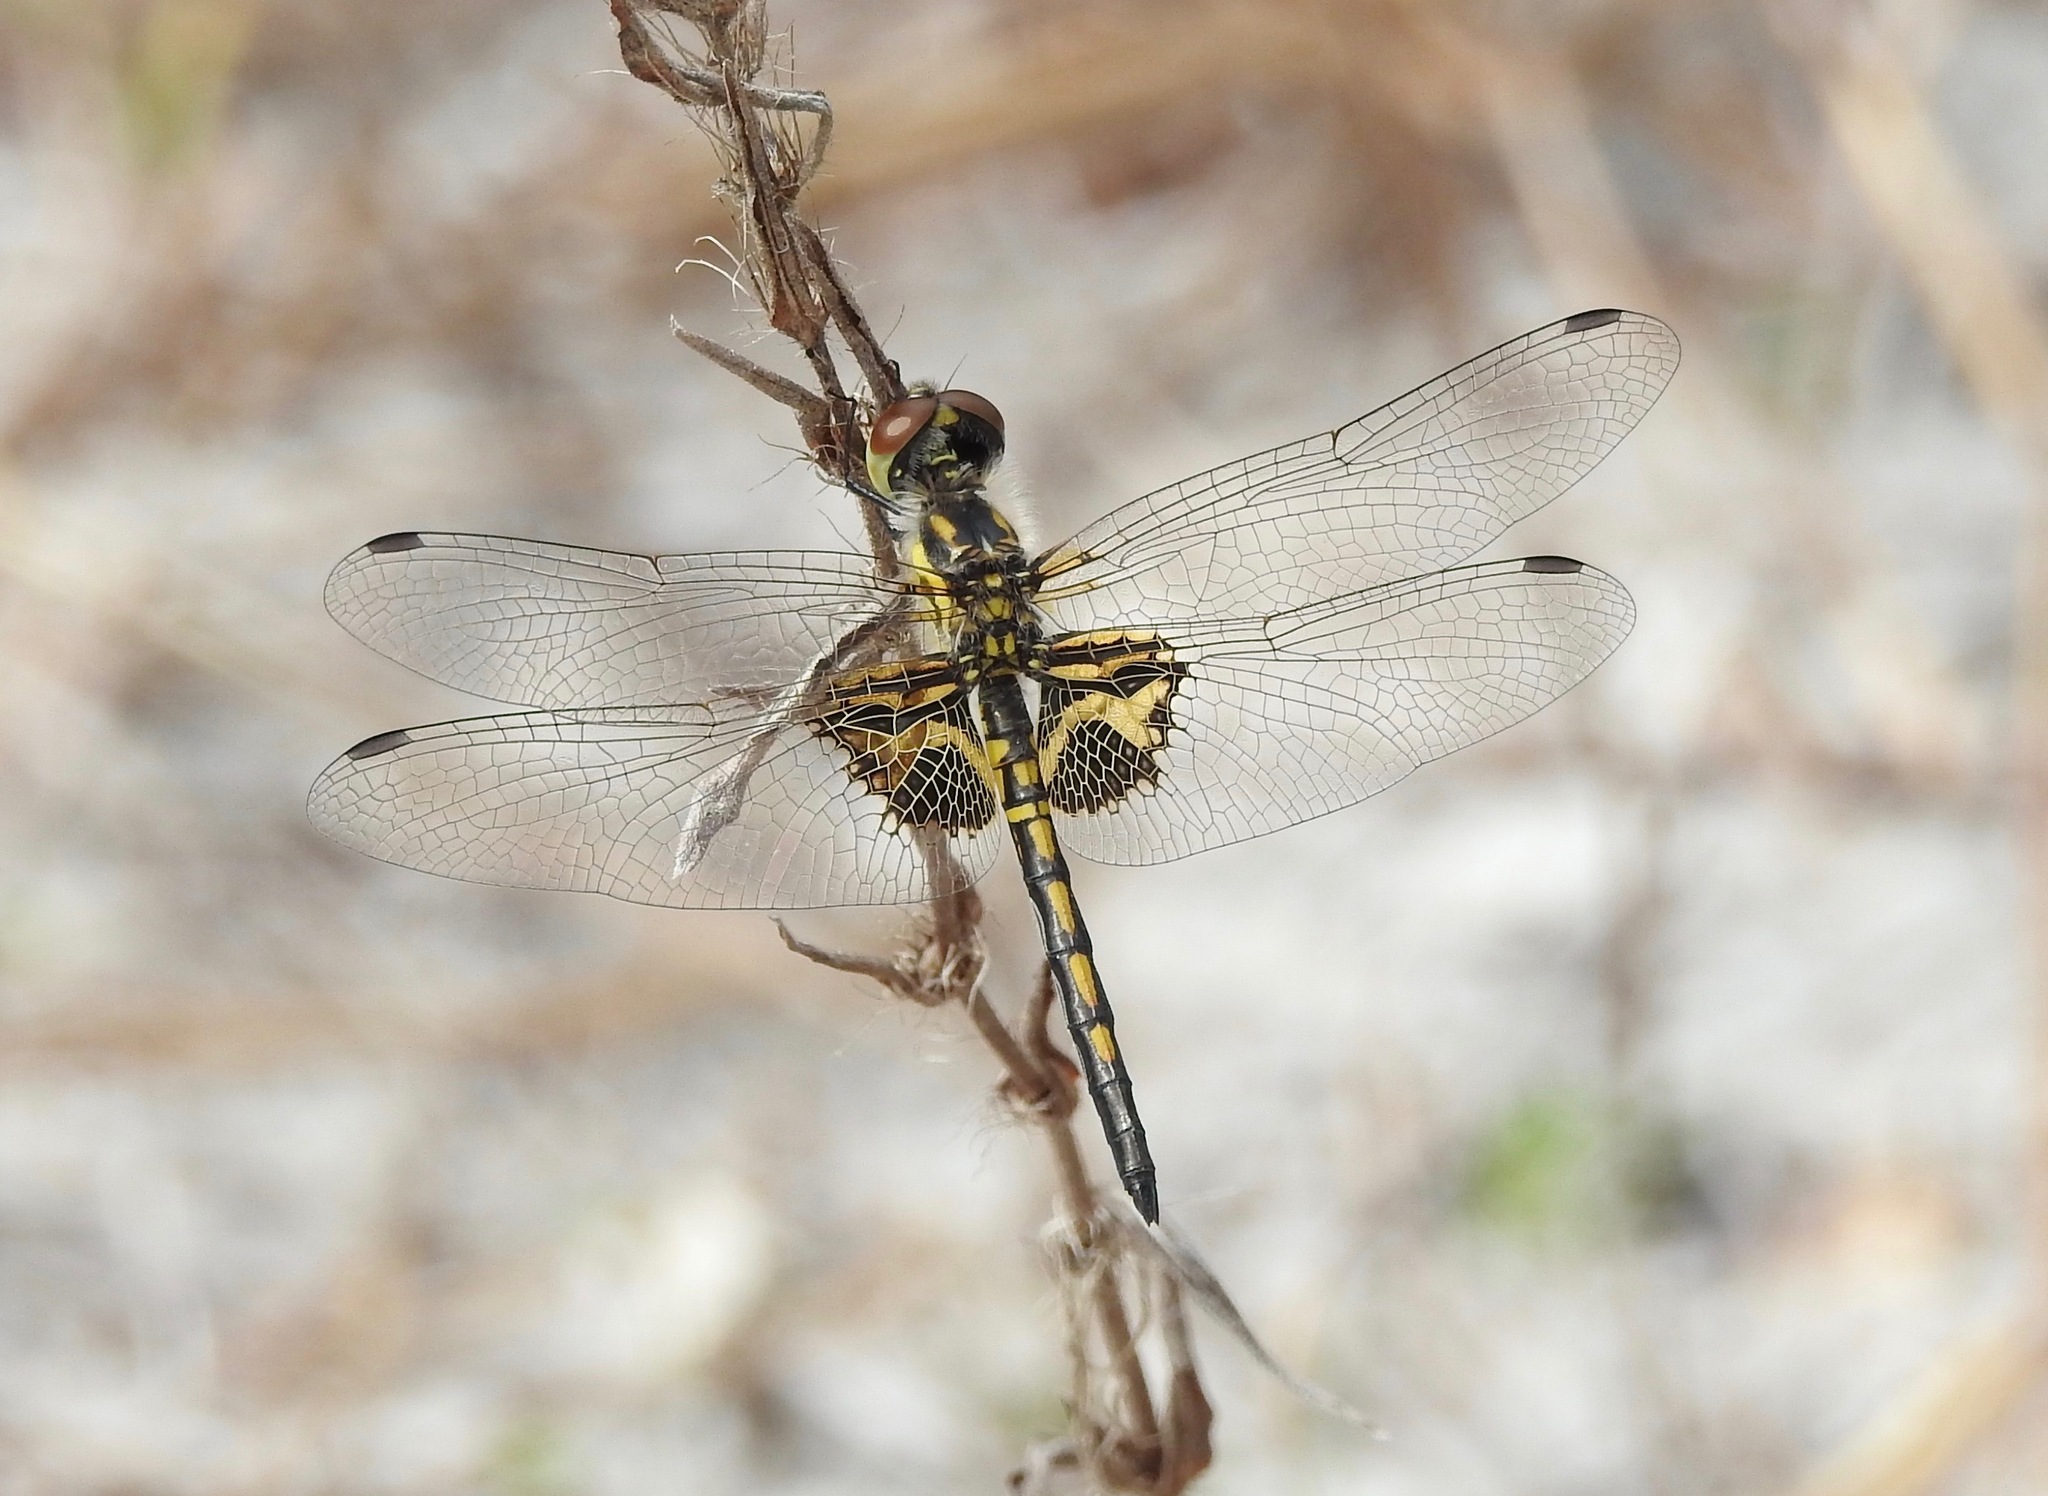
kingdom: Animalia
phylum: Arthropoda
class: Insecta
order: Odonata
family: Libellulidae
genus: Celithemis
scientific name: Celithemis ornata
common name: Ornate pennant
